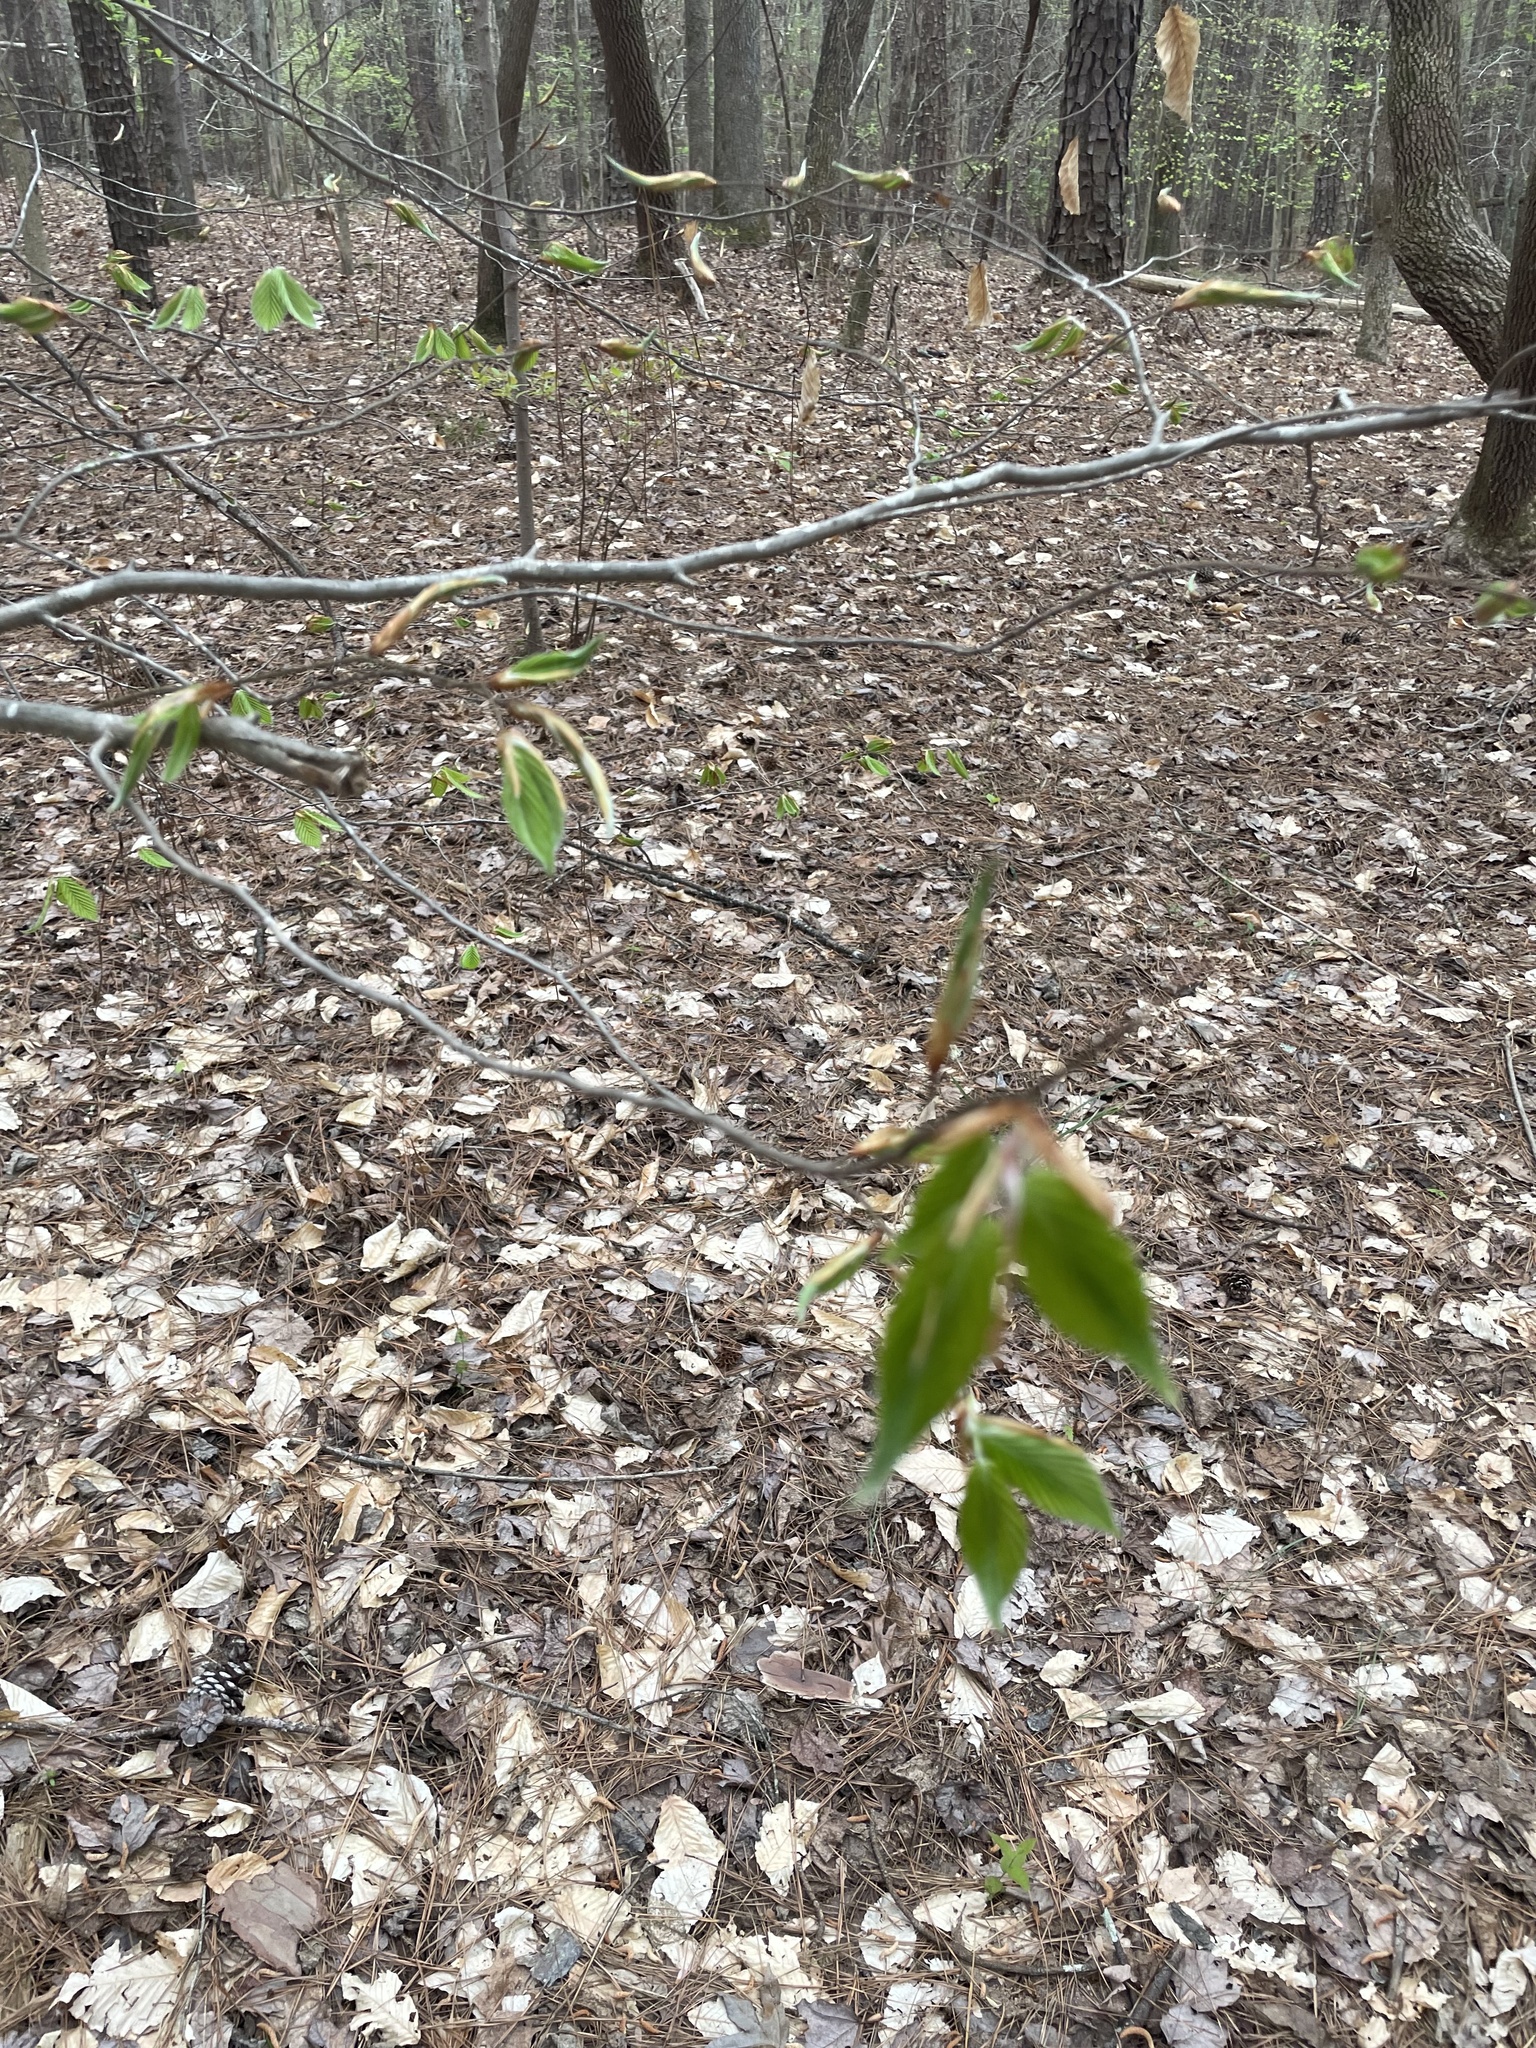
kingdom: Plantae
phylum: Tracheophyta
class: Magnoliopsida
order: Fagales
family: Fagaceae
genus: Fagus
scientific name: Fagus grandifolia
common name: American beech
